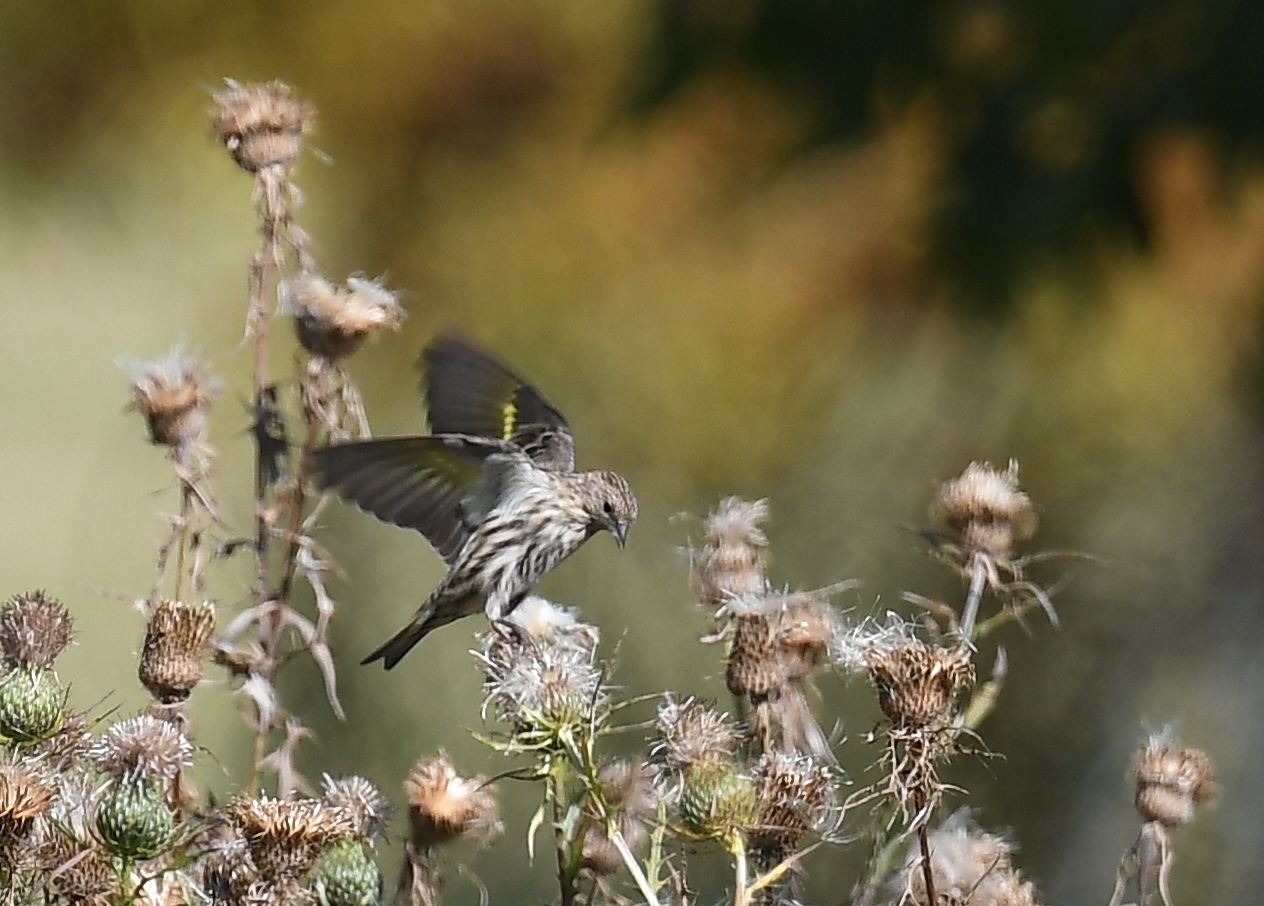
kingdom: Animalia
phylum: Chordata
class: Aves
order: Passeriformes
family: Fringillidae
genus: Spinus
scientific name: Spinus pinus
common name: Pine siskin
